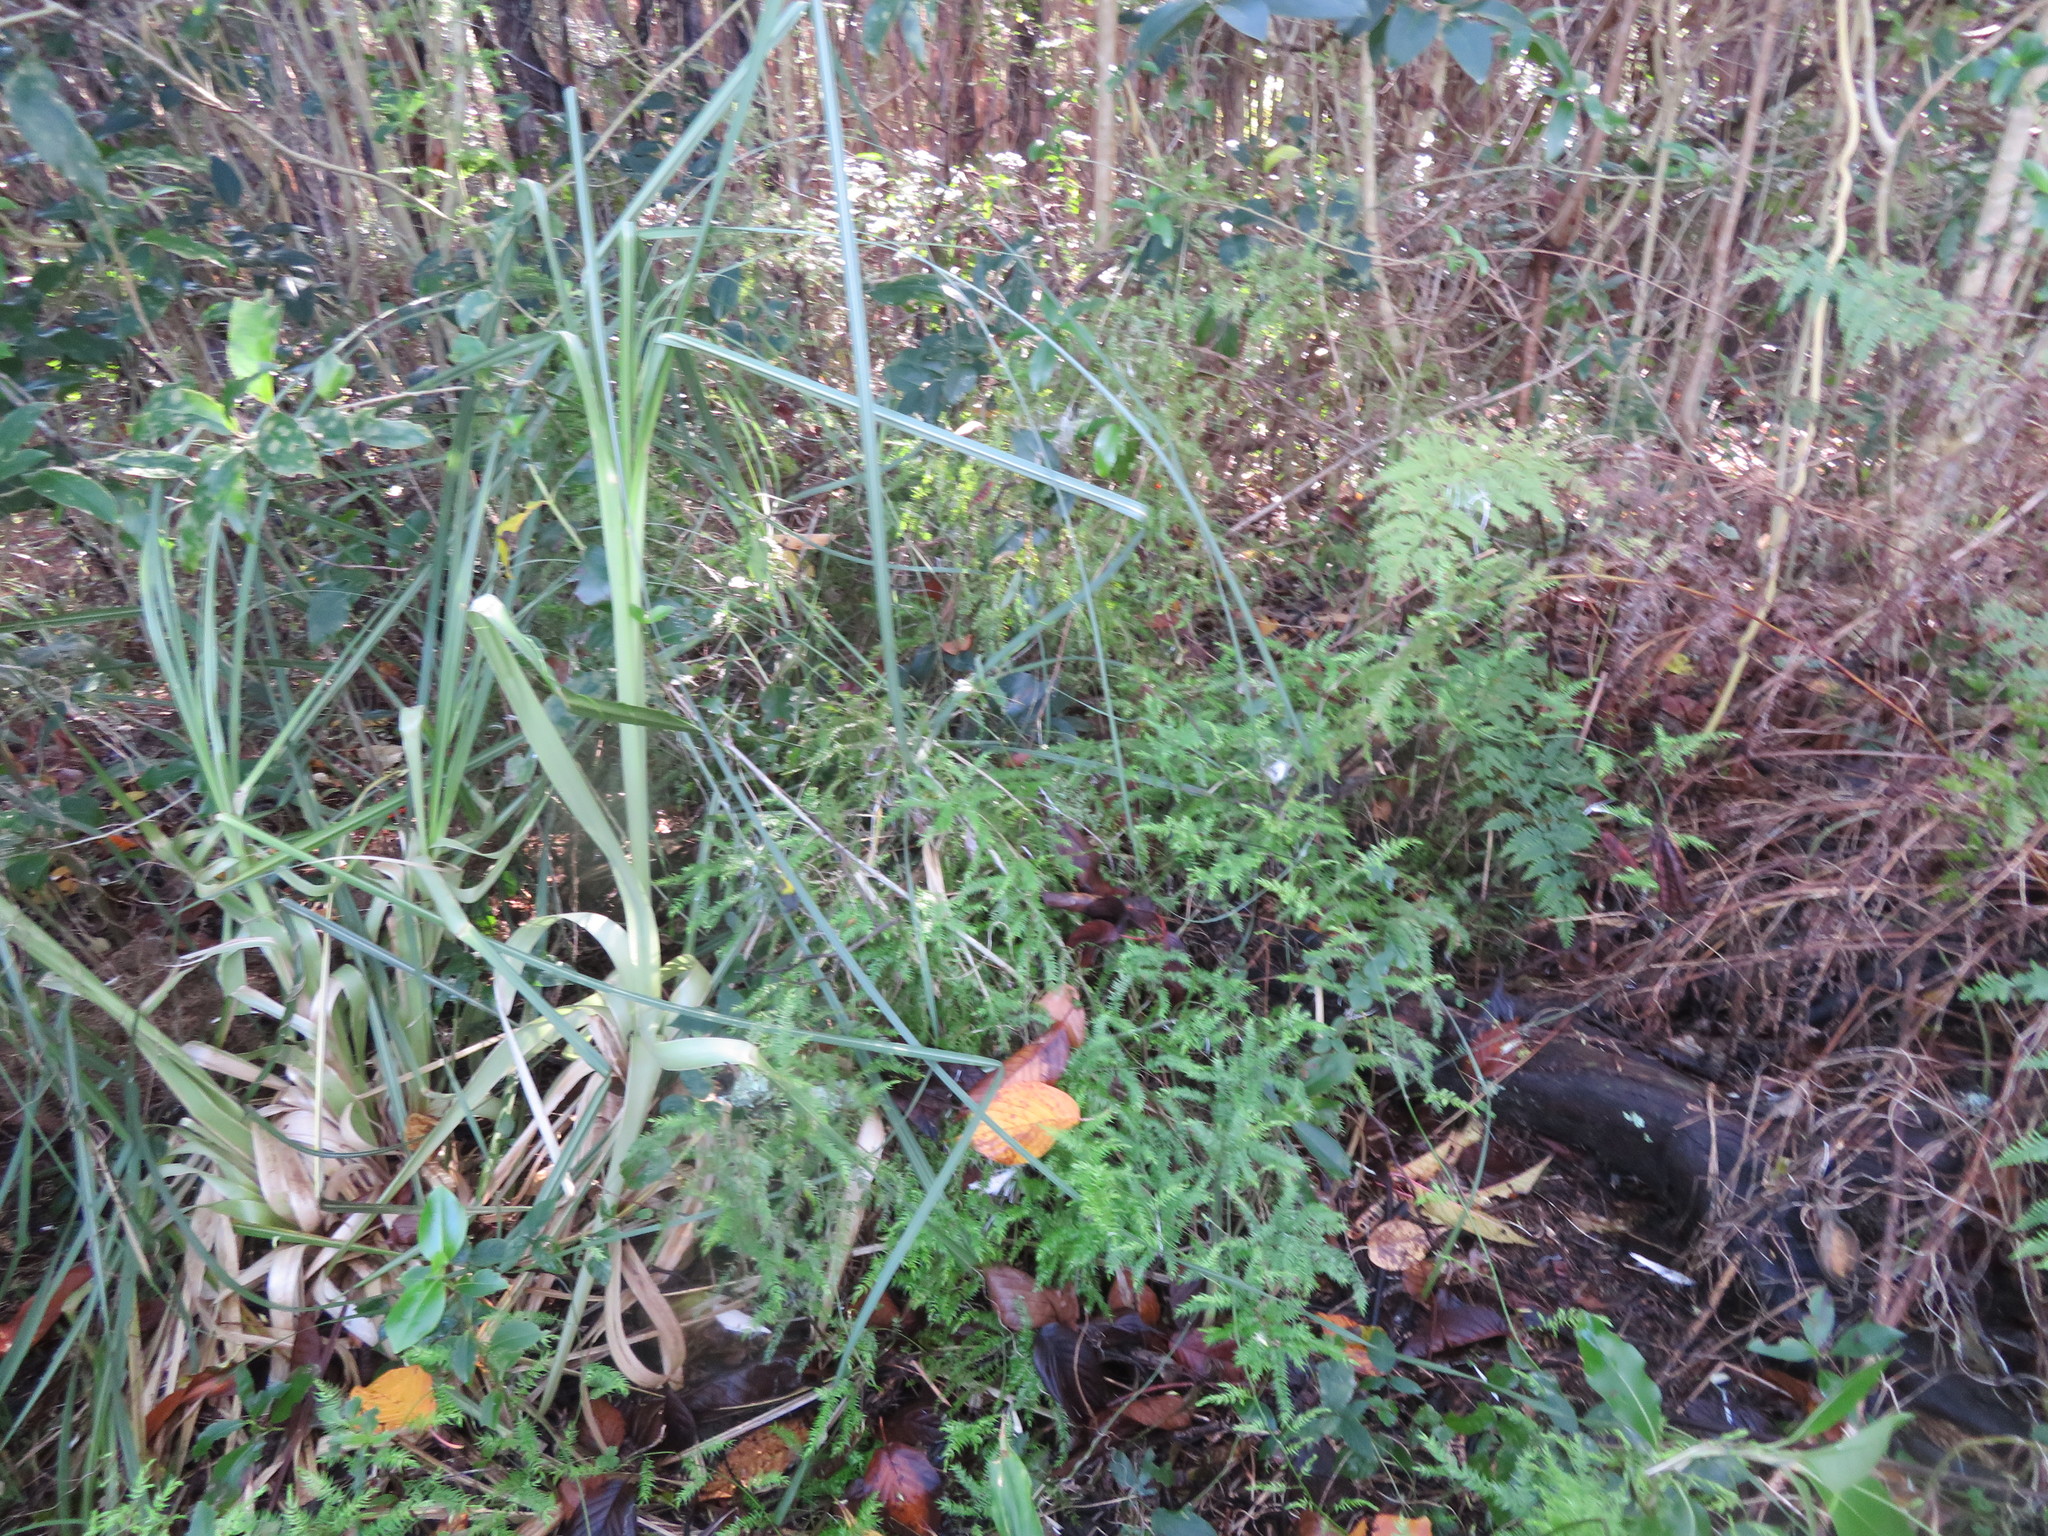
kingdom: Plantae
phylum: Tracheophyta
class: Liliopsida
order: Asparagales
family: Asparagaceae
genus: Asparagus
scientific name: Asparagus scandens
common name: Asparagus-fern
